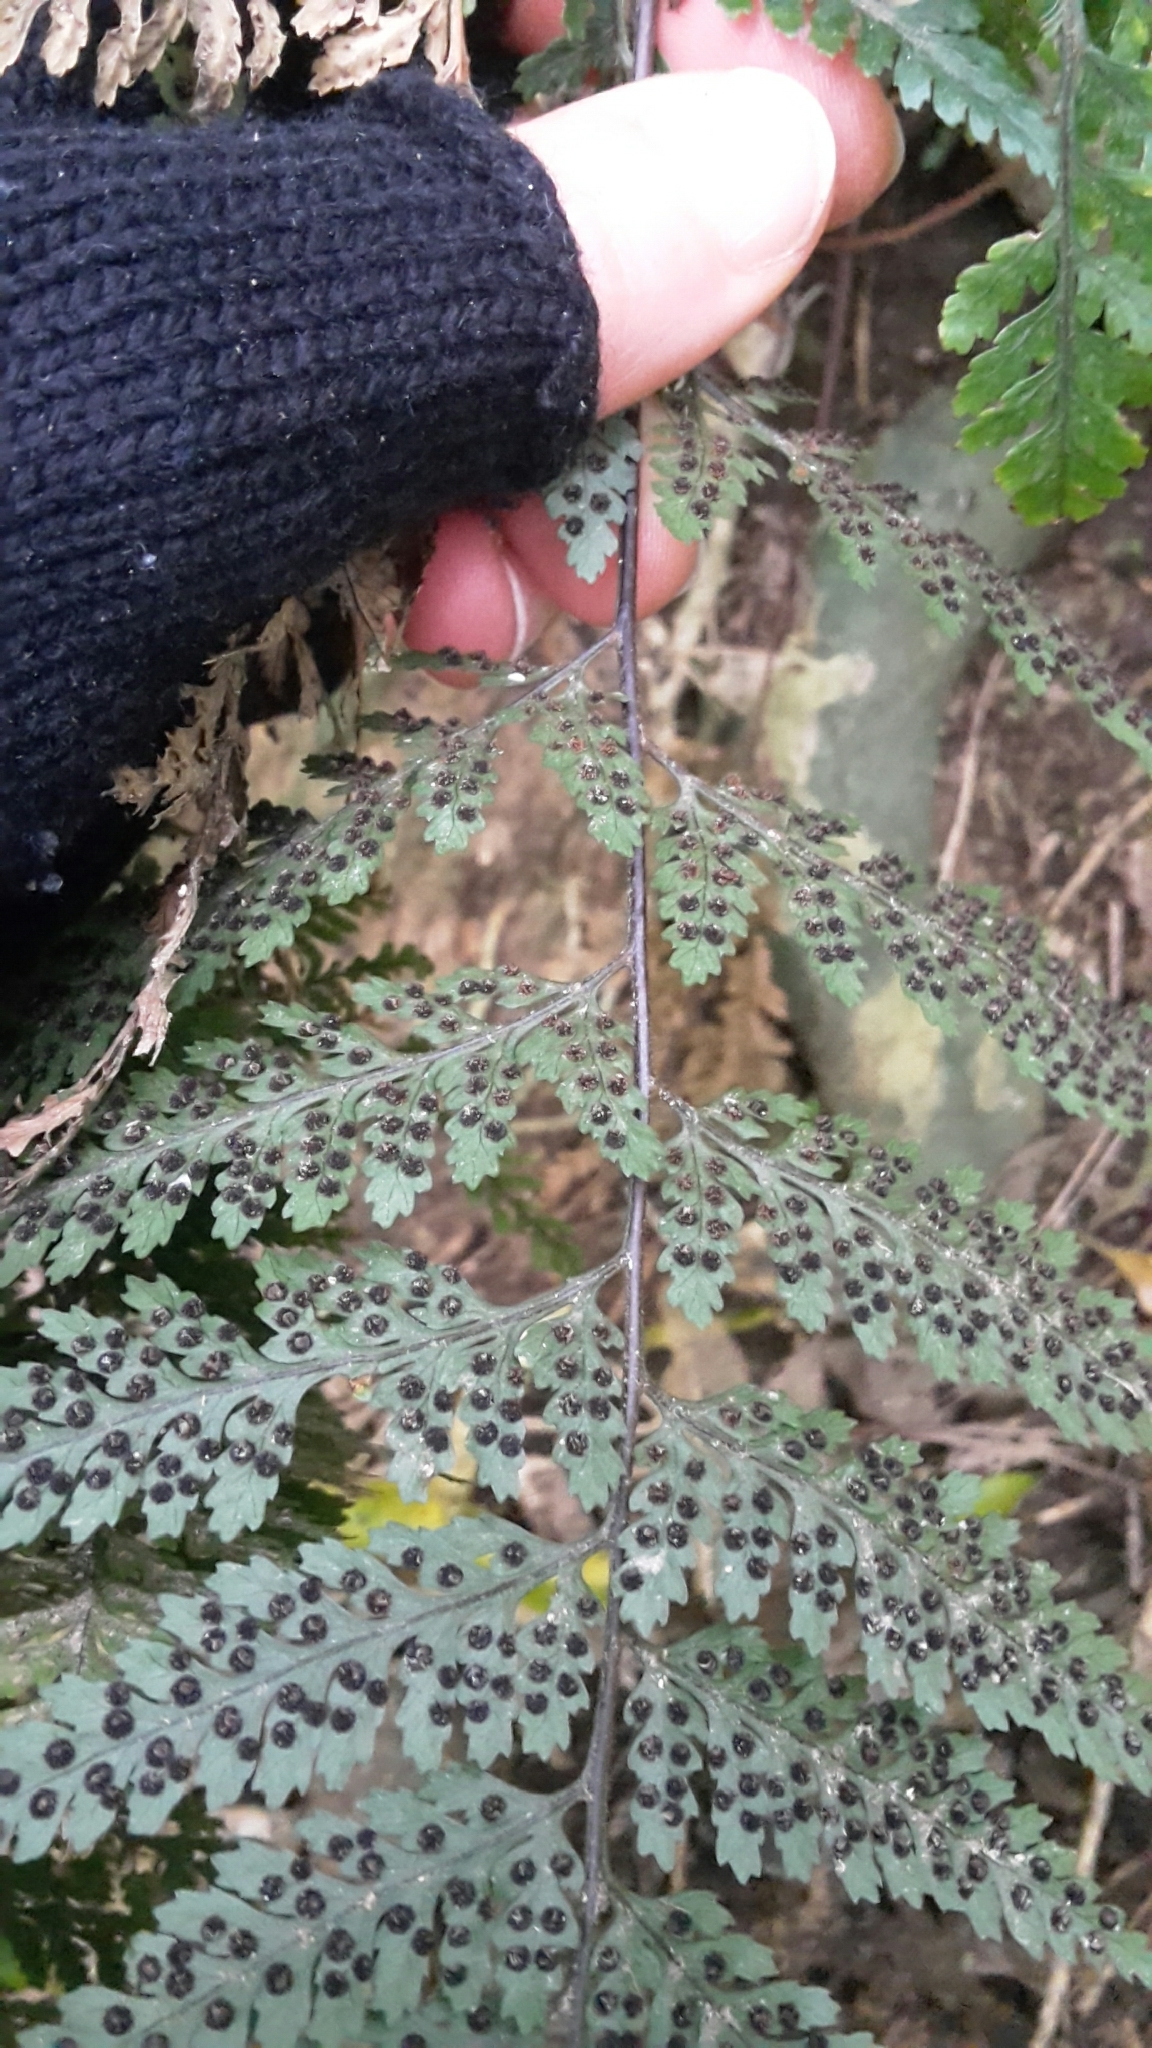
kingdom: Plantae
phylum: Tracheophyta
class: Polypodiopsida
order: Polypodiales
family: Dryopteridaceae
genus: Parapolystichum
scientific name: Parapolystichum glabellum
